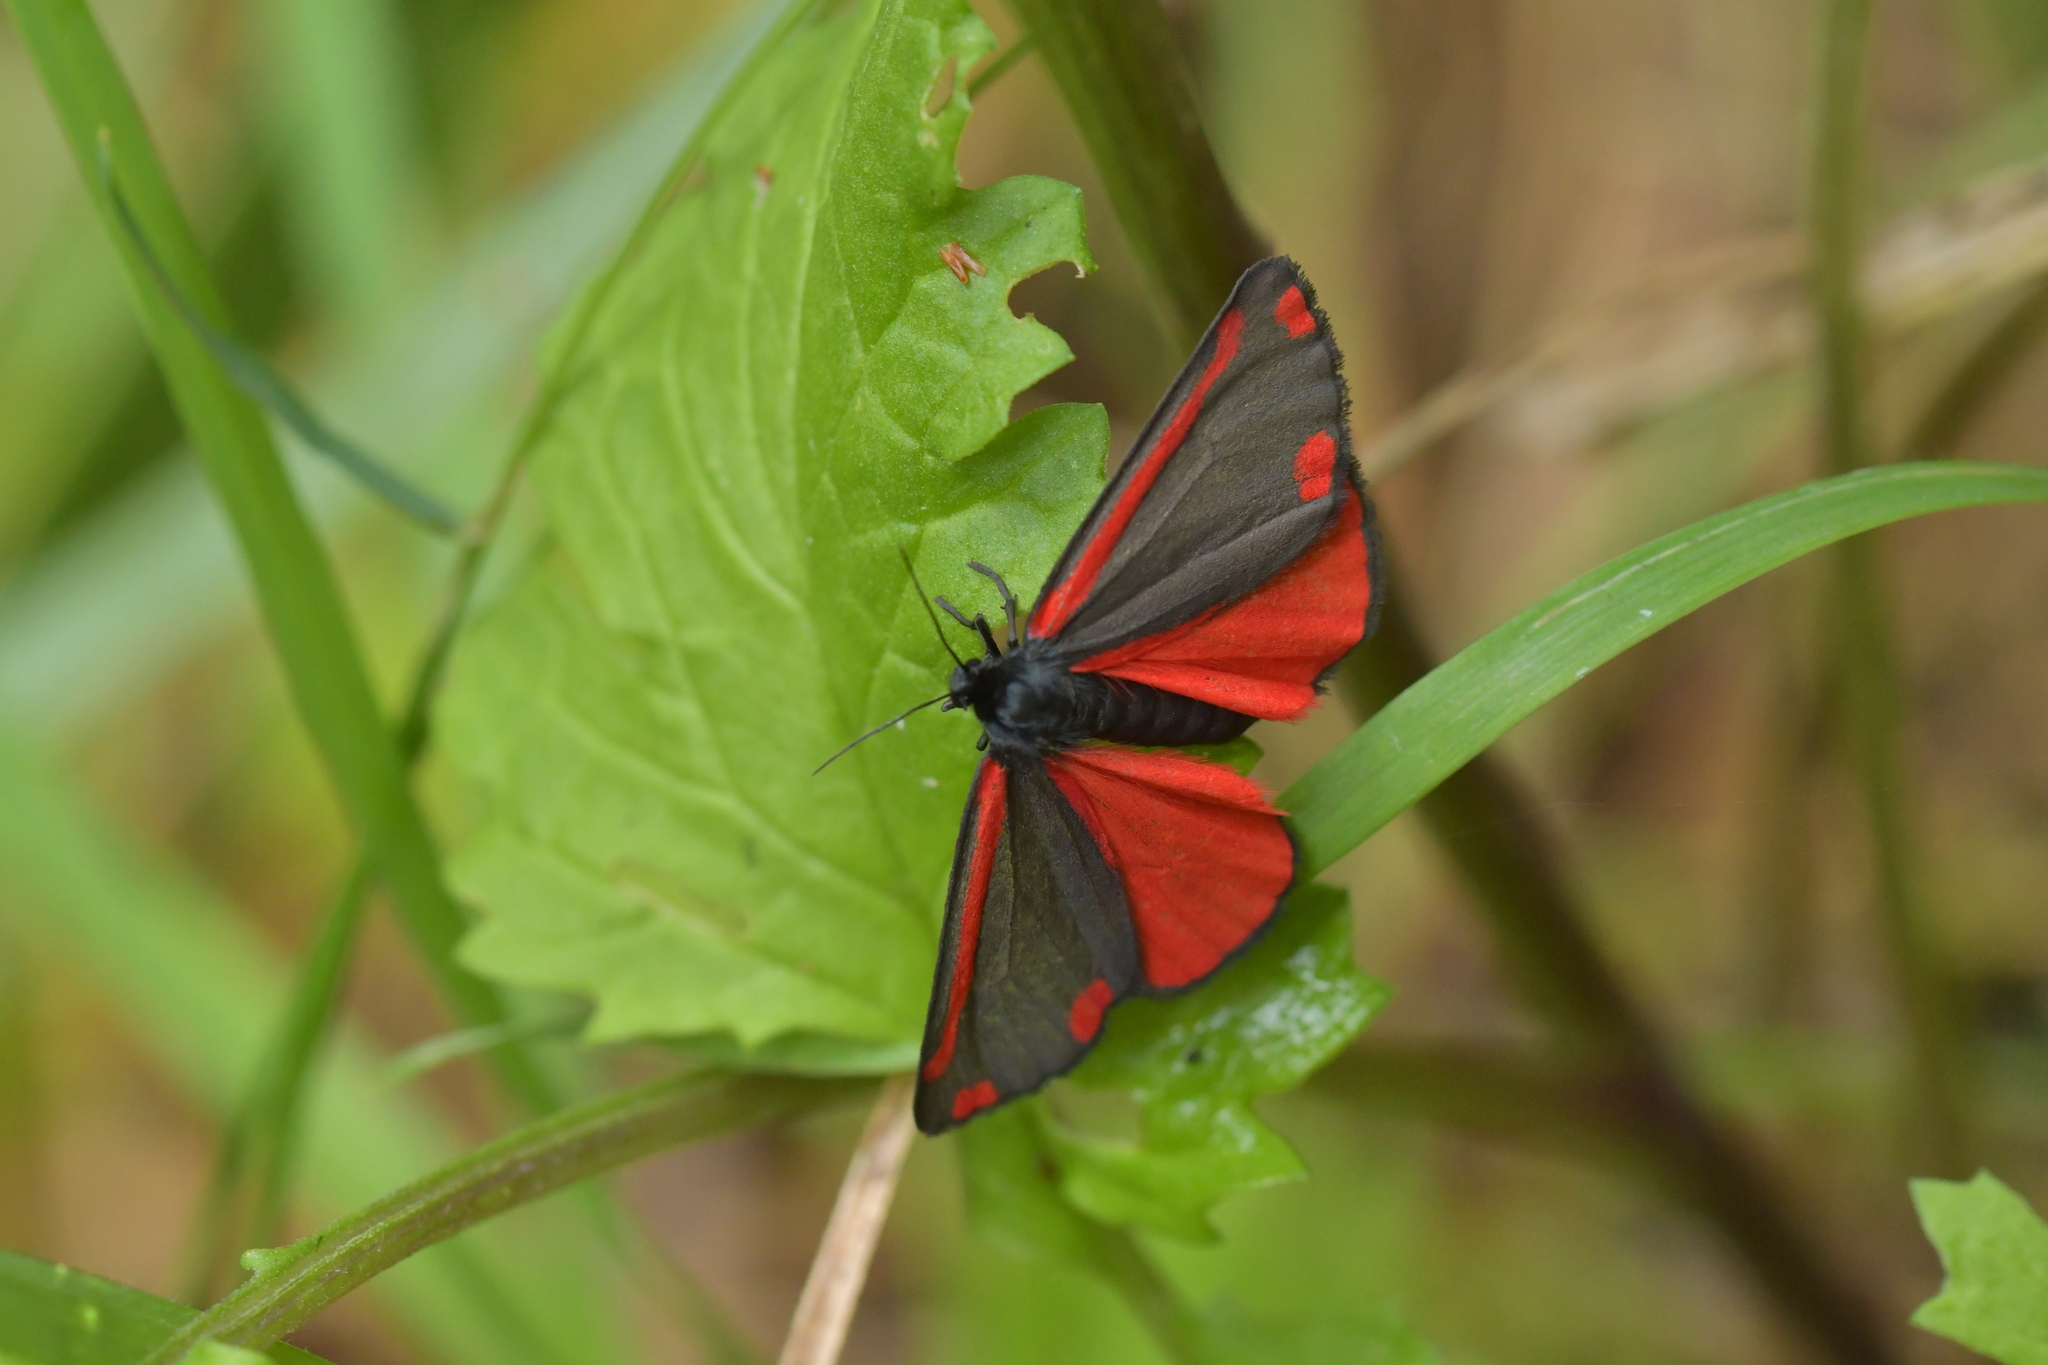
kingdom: Animalia
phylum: Arthropoda
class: Insecta
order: Lepidoptera
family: Erebidae
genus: Tyria
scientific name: Tyria jacobaeae
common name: Cinnabar
